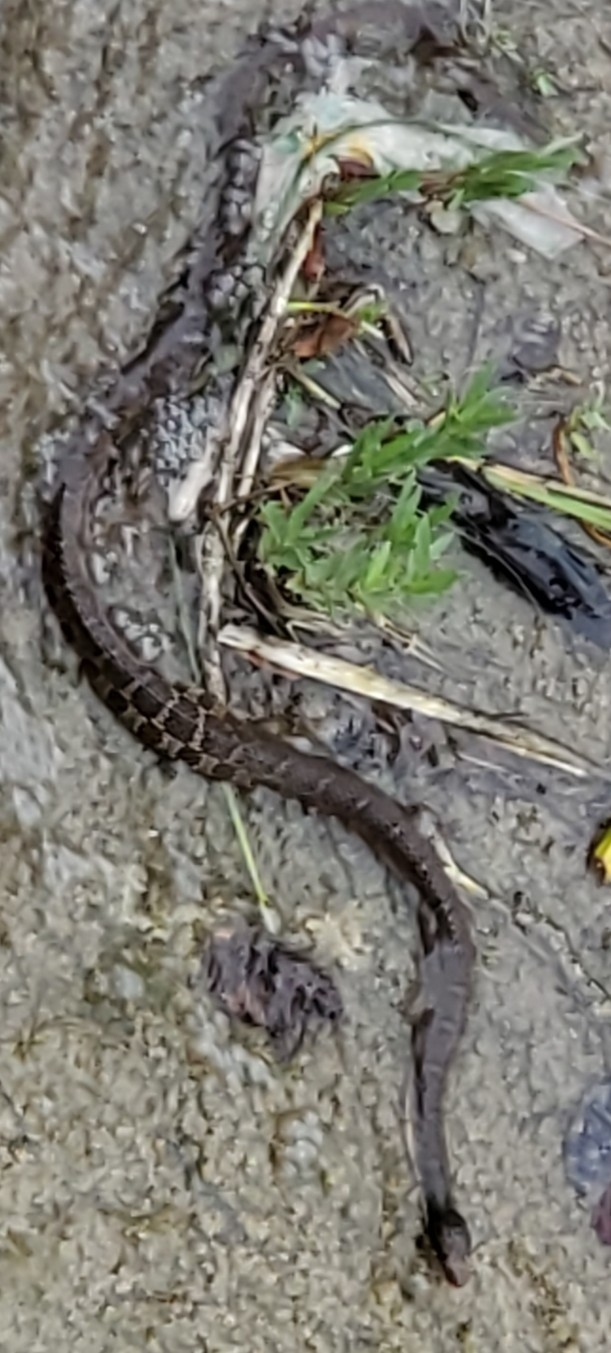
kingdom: Animalia
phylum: Chordata
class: Squamata
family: Colubridae
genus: Nerodia
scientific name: Nerodia erythrogaster
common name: Plainbelly water snake
